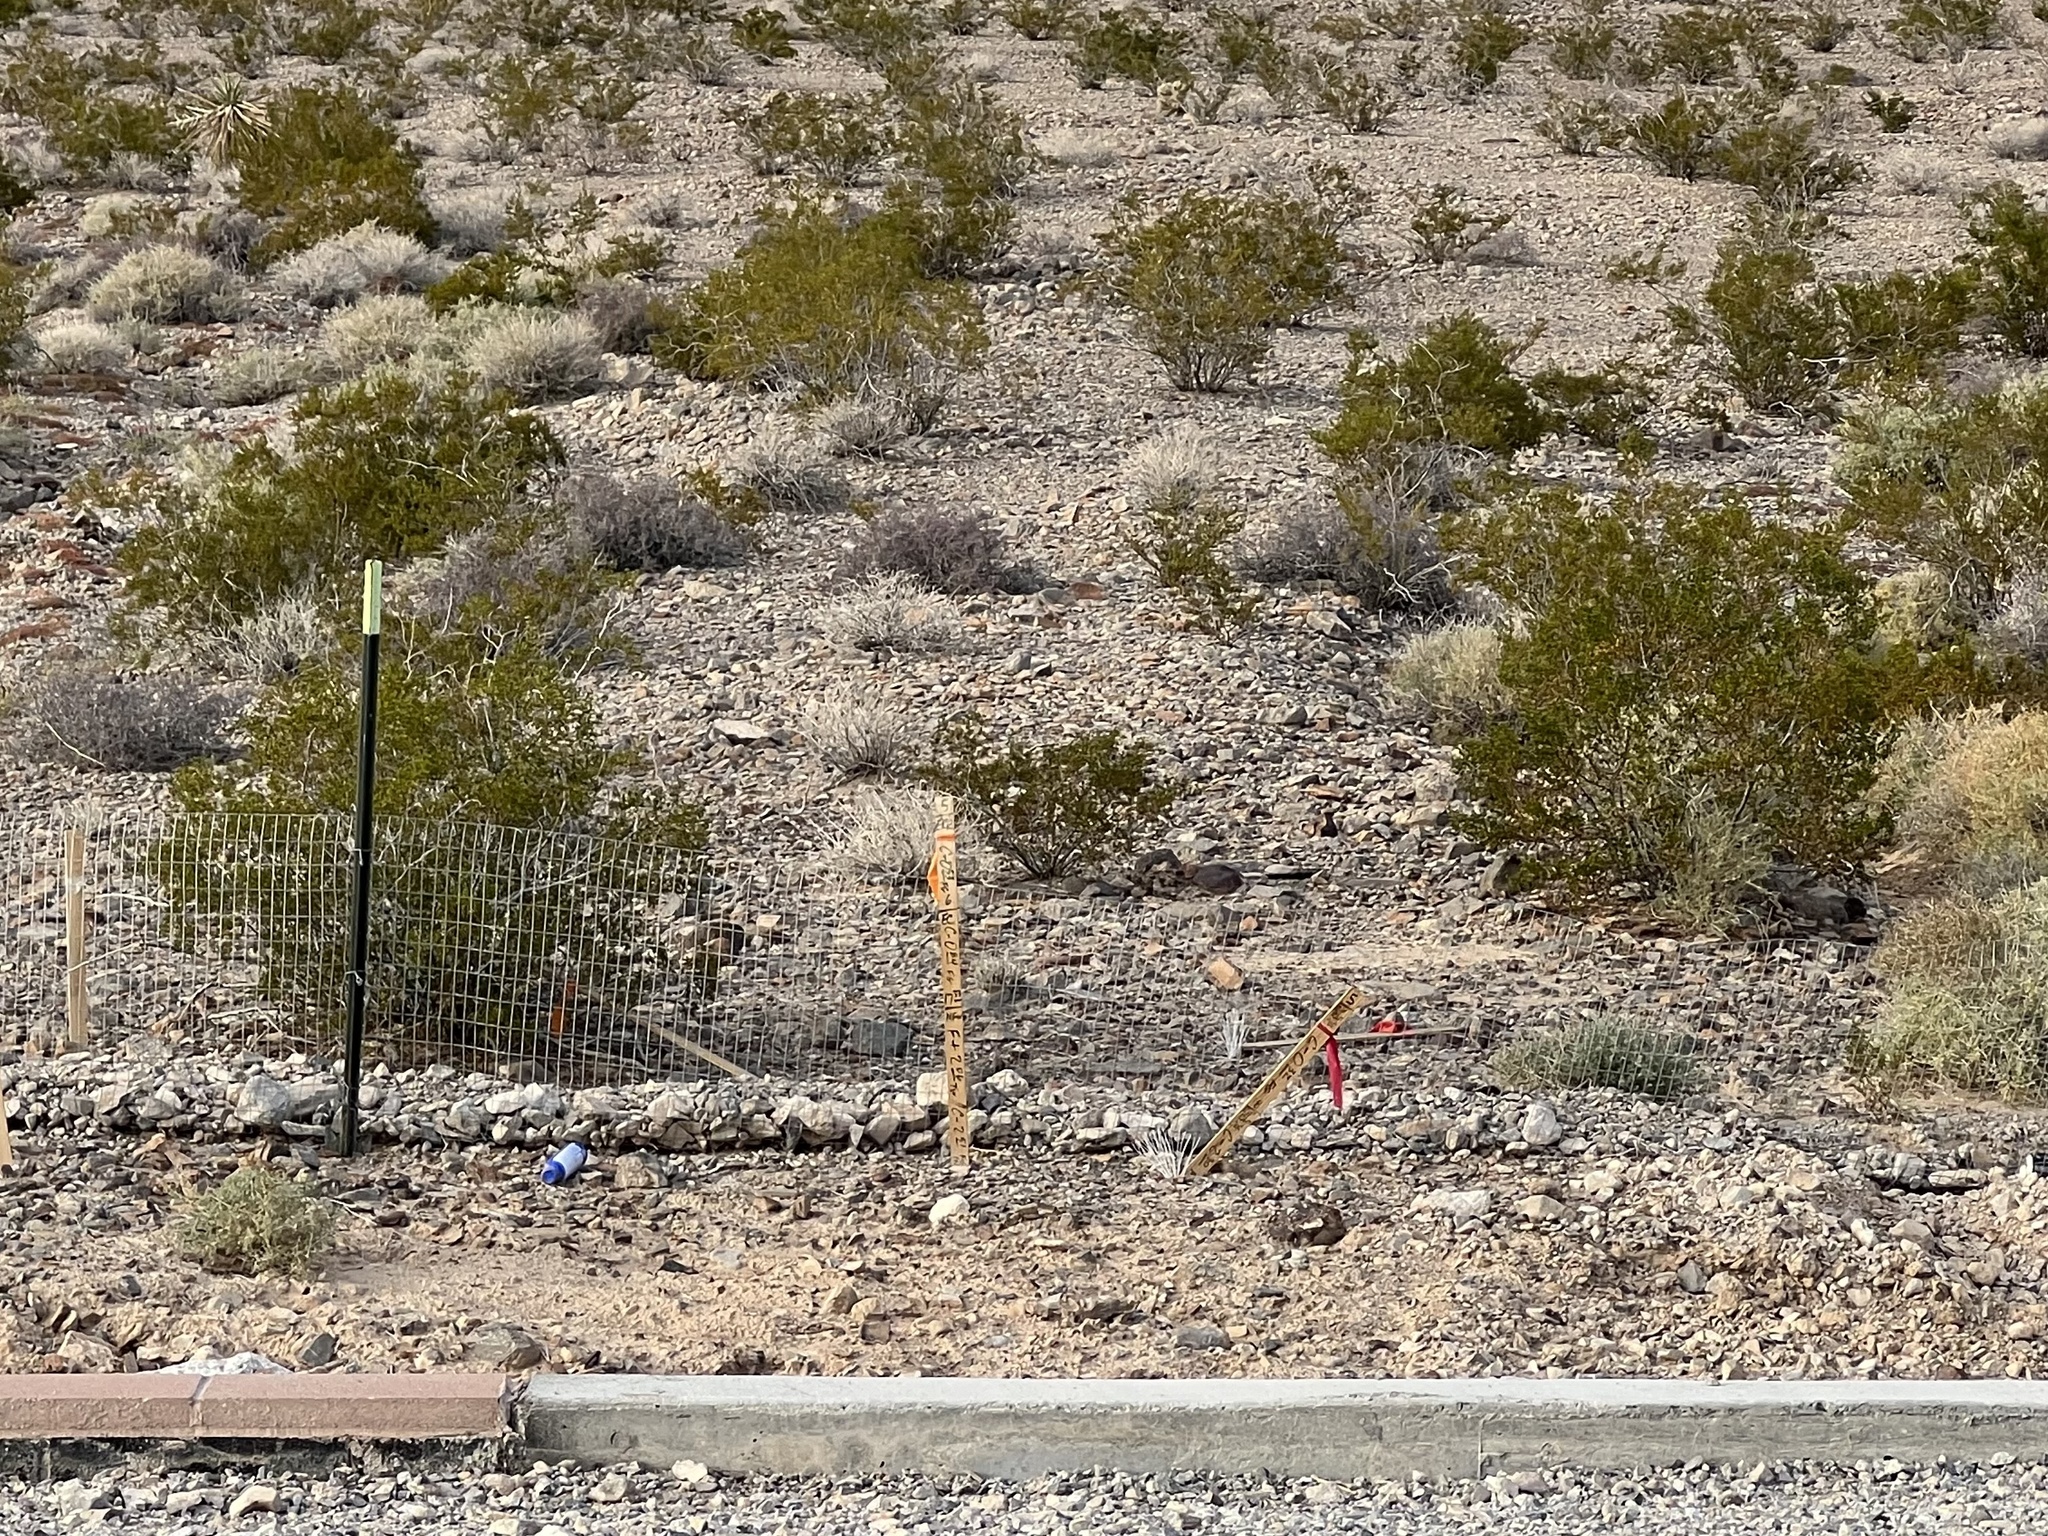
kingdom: Plantae
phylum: Tracheophyta
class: Magnoliopsida
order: Zygophyllales
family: Zygophyllaceae
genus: Larrea
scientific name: Larrea tridentata
